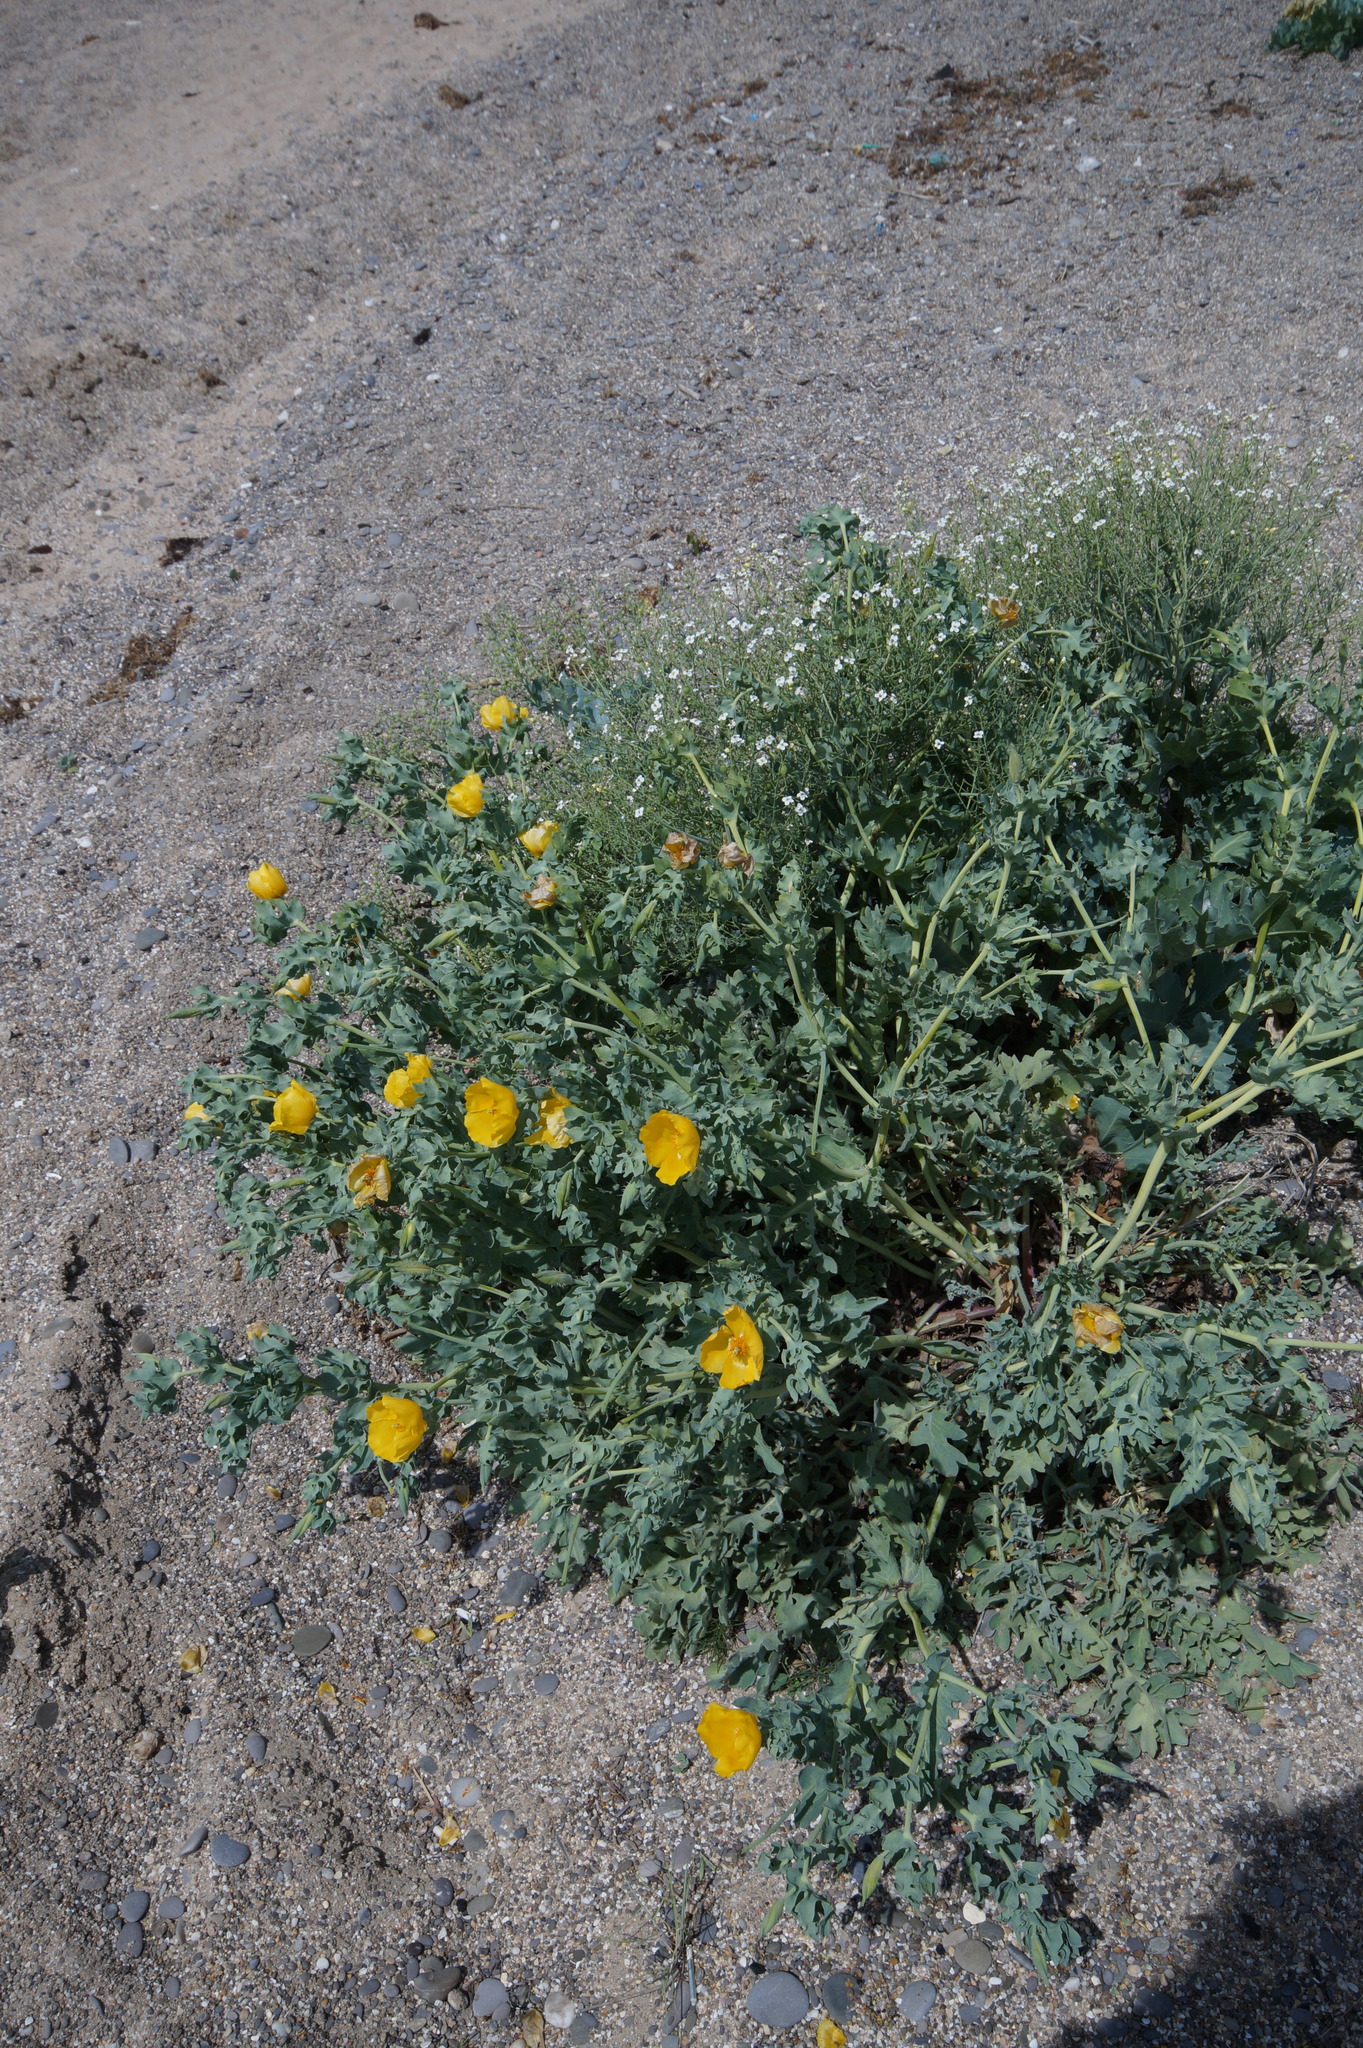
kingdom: Plantae
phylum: Tracheophyta
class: Magnoliopsida
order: Ranunculales
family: Papaveraceae
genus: Glaucium
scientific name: Glaucium flavum
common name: Yellow horned-poppy
